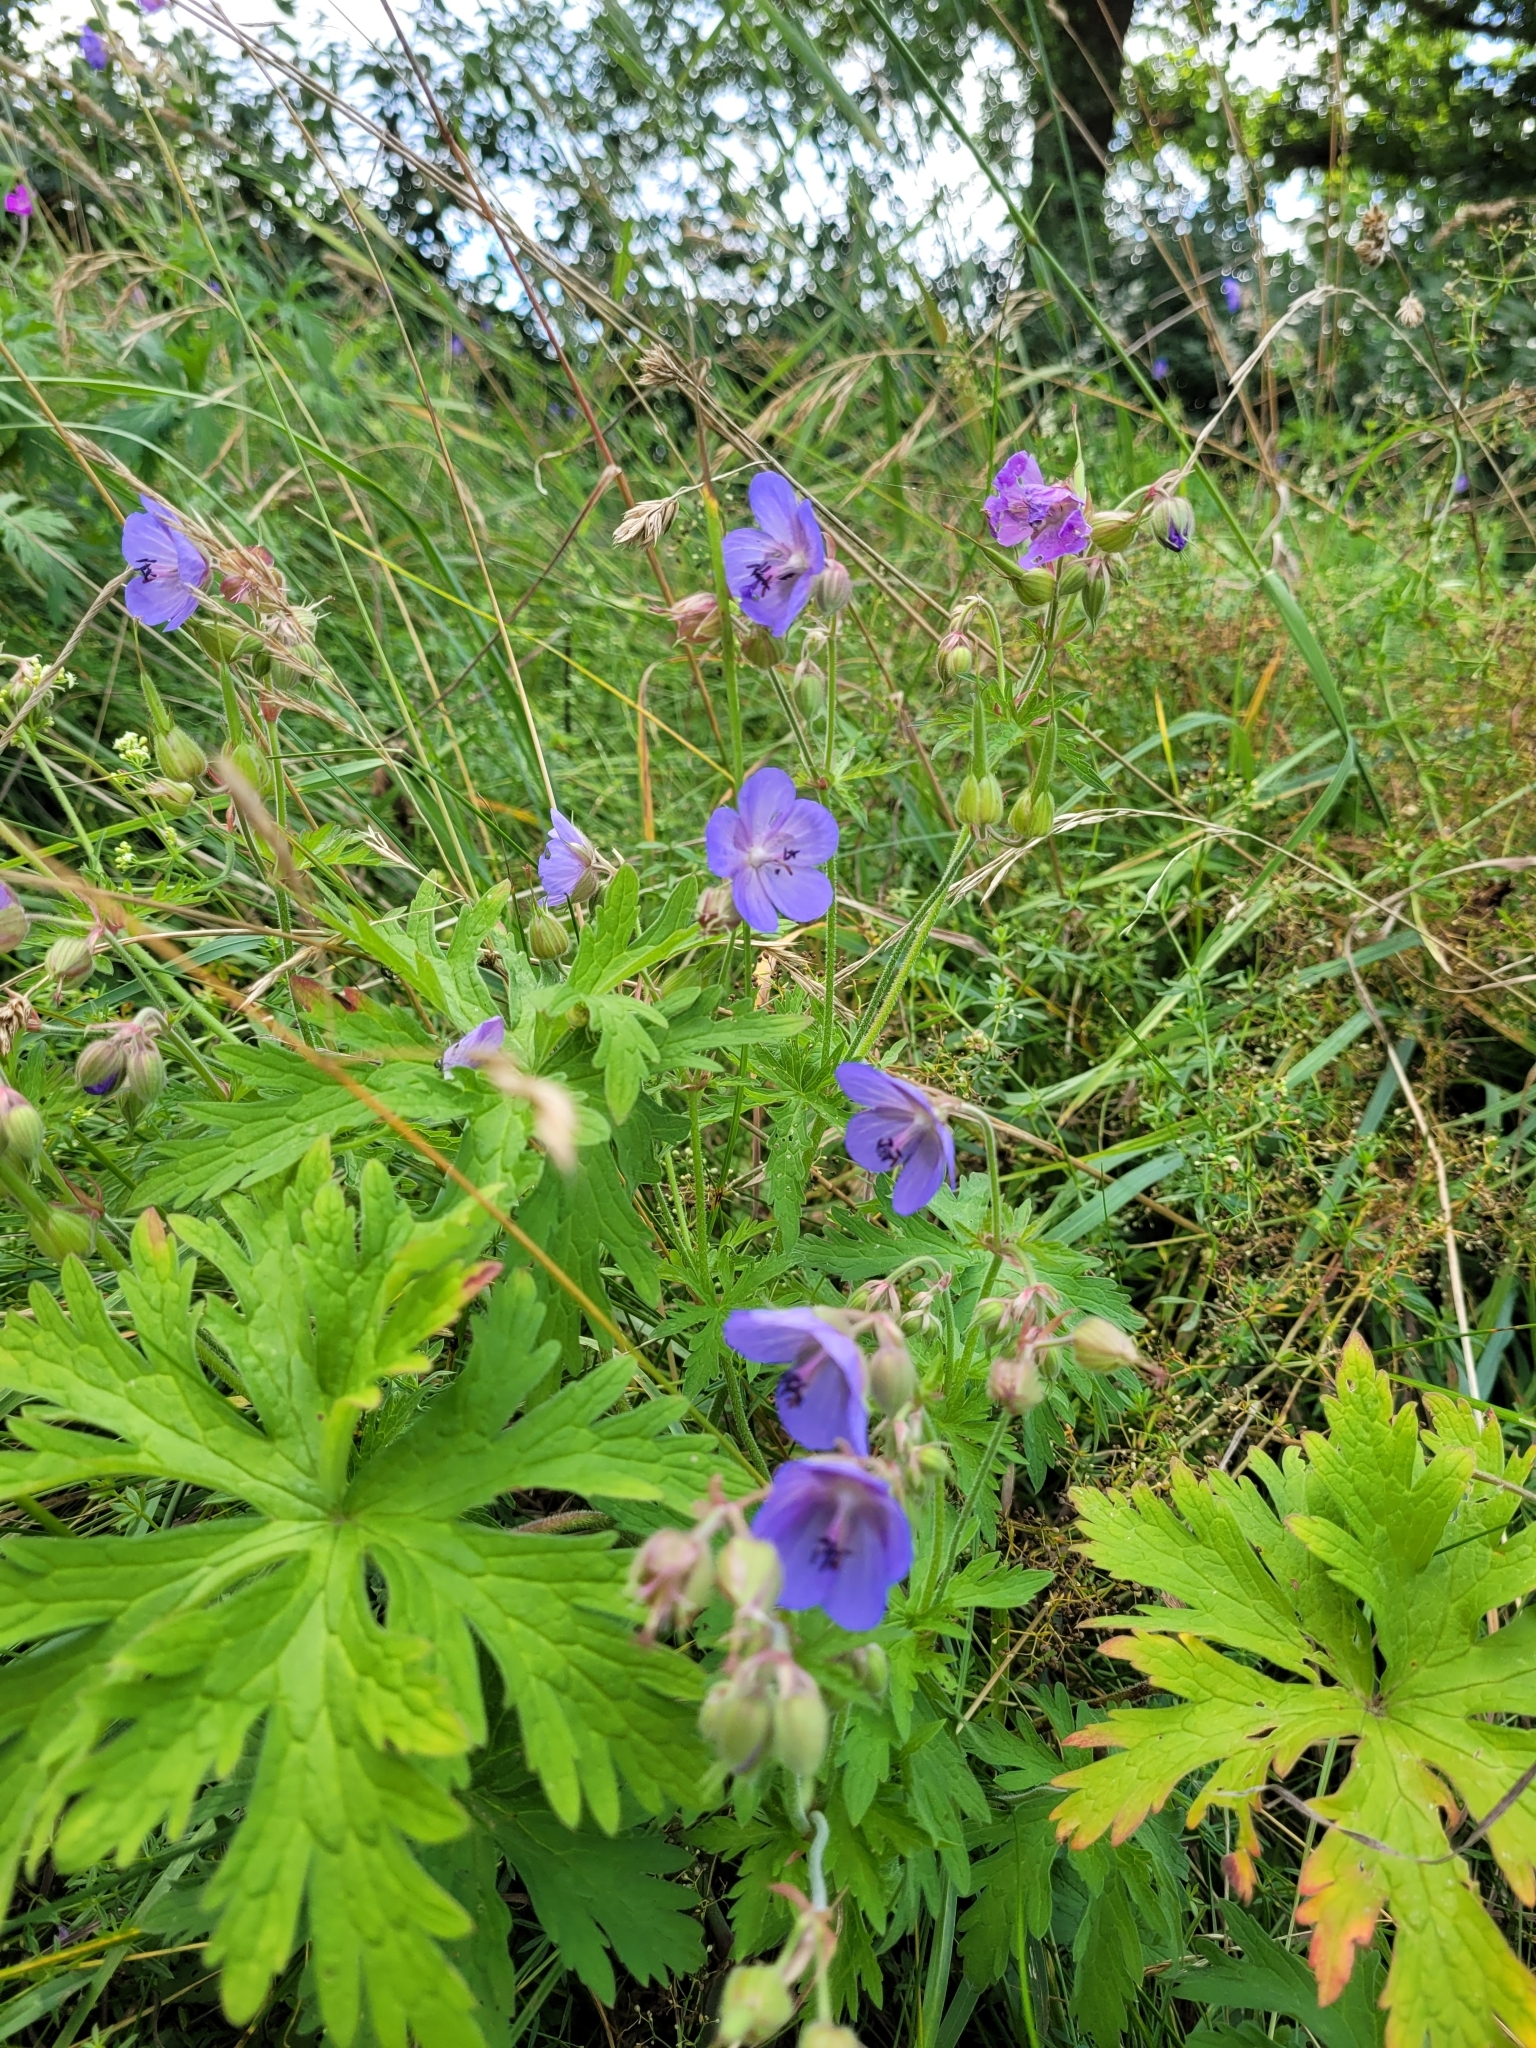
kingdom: Plantae
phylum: Tracheophyta
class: Magnoliopsida
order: Geraniales
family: Geraniaceae
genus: Geranium
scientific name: Geranium pratense
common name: Meadow crane's-bill
